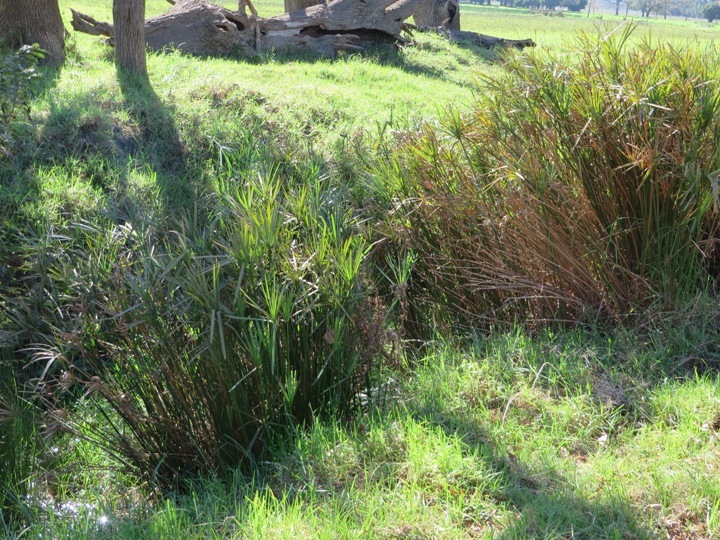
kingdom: Plantae
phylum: Tracheophyta
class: Liliopsida
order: Poales
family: Cyperaceae
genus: Cyperus
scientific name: Cyperus textilis
